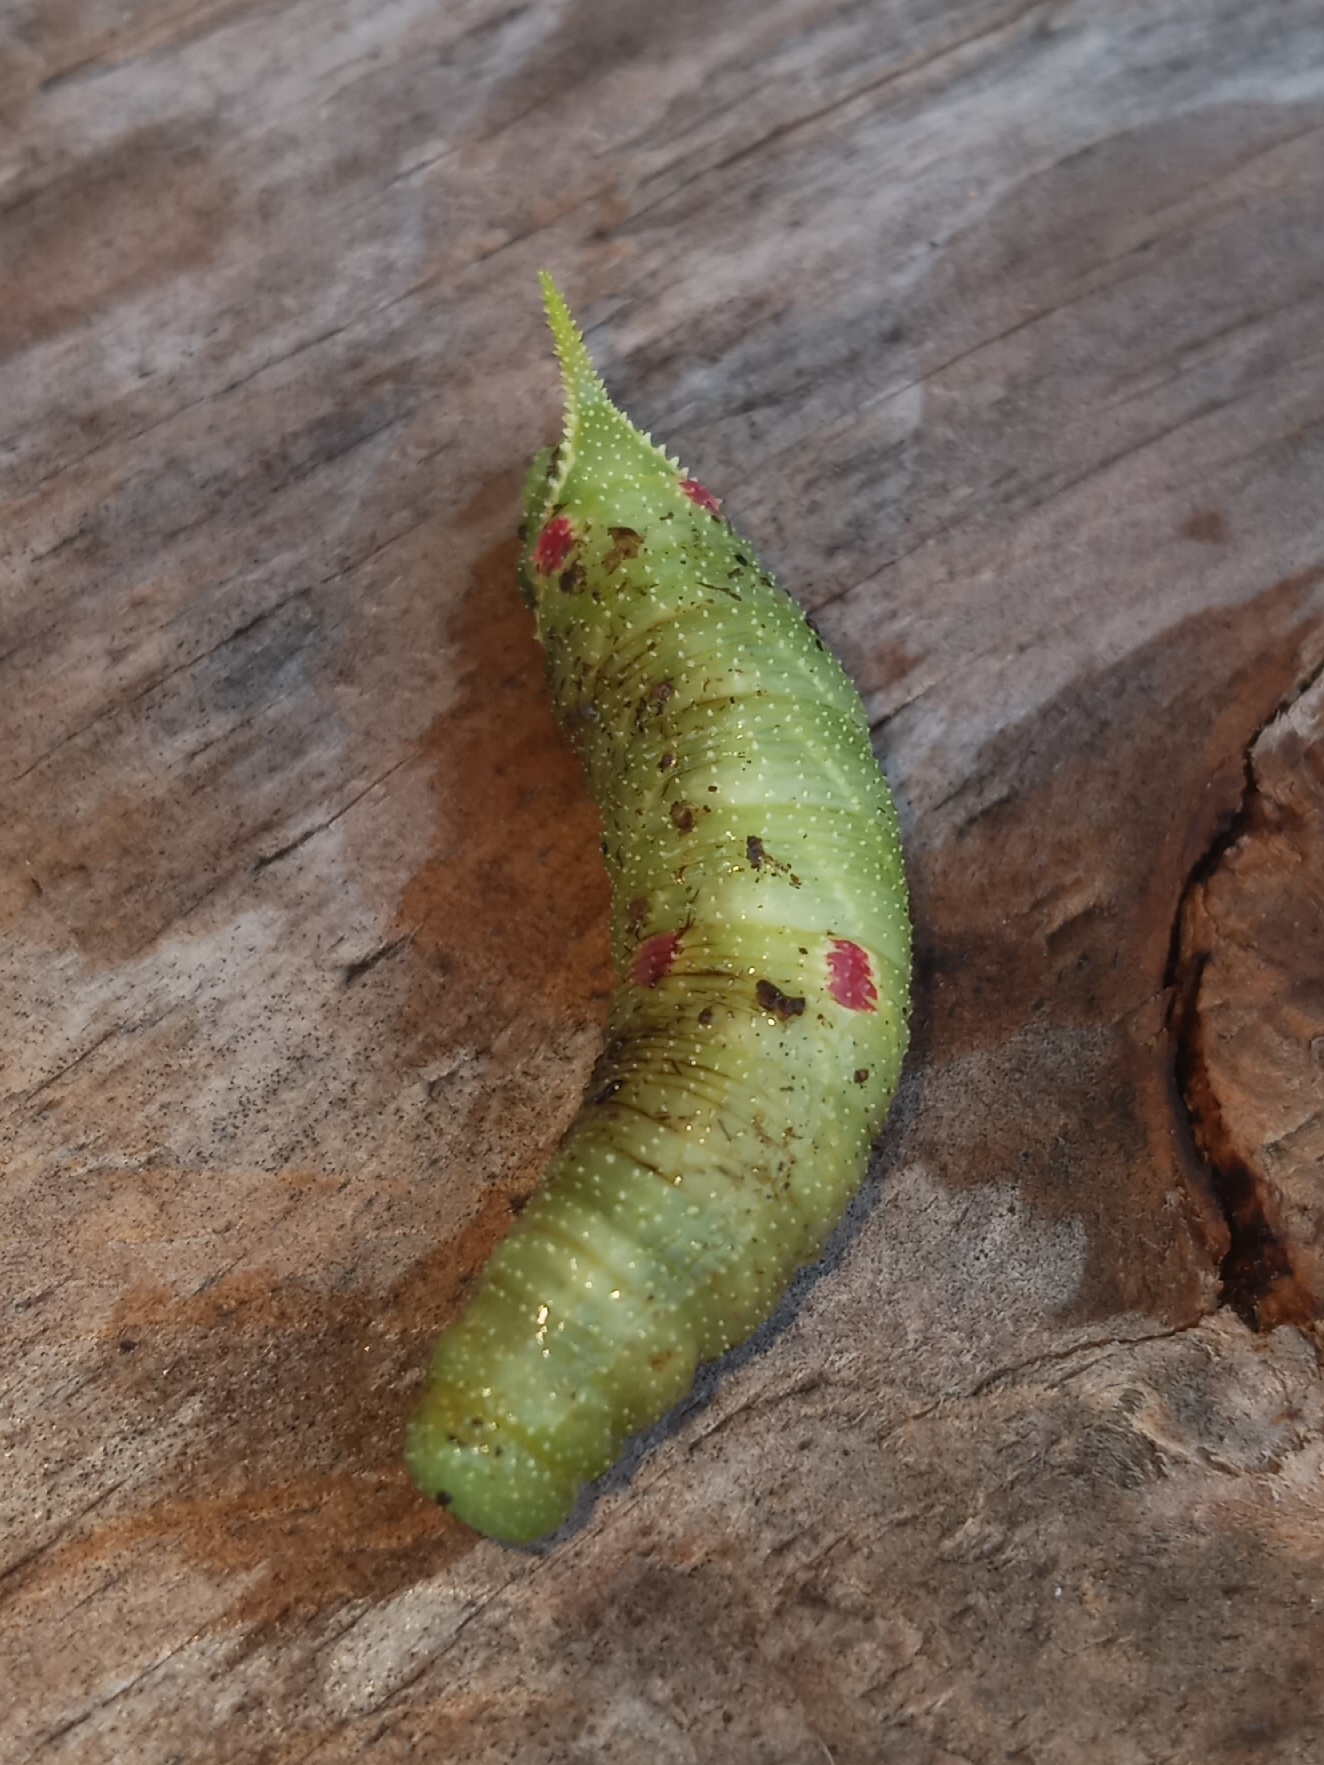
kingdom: Animalia
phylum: Arthropoda
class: Insecta
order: Lepidoptera
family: Sphingidae
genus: Paonias
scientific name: Paonias myops
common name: Small-eyed sphinx
